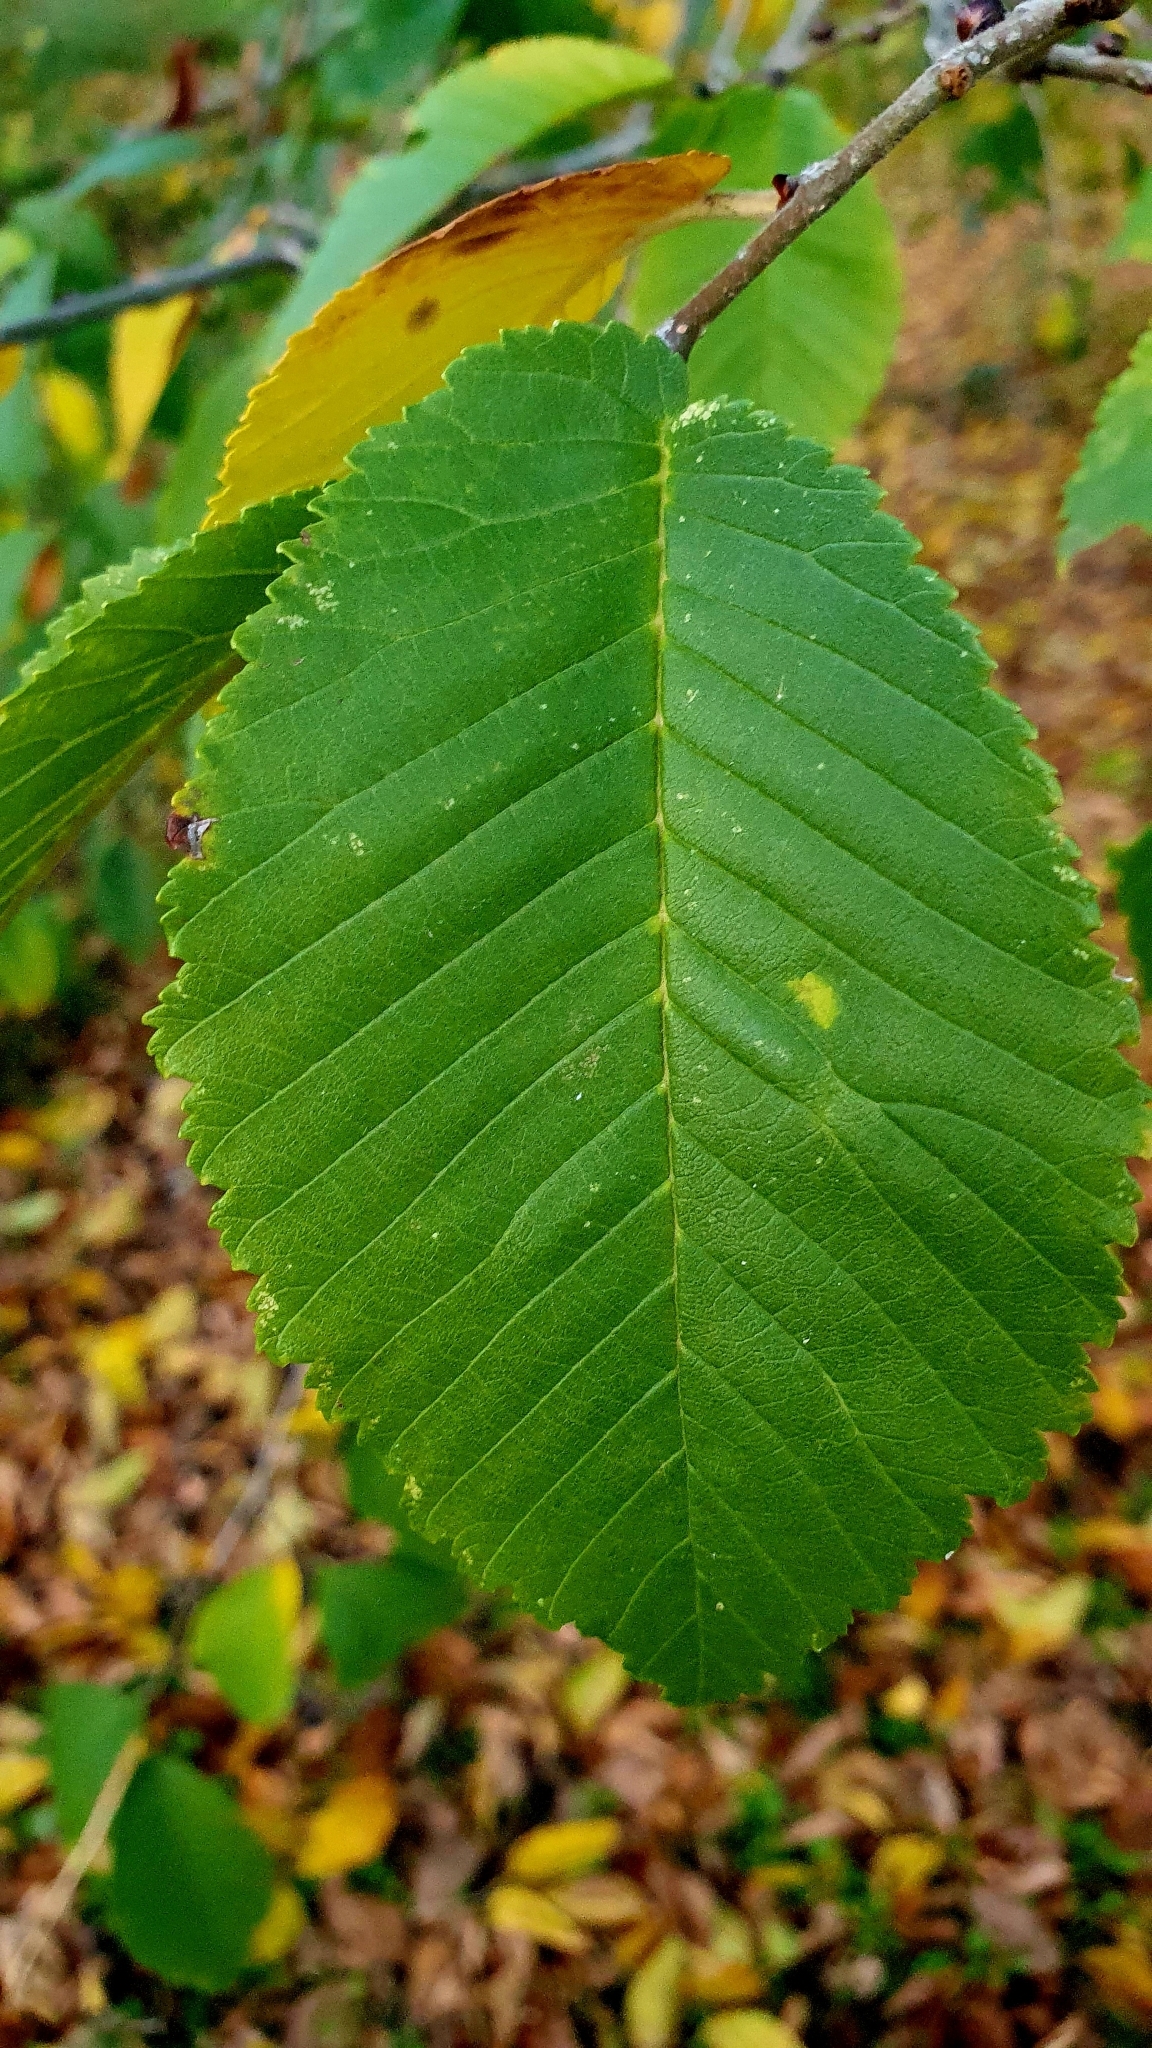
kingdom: Plantae
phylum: Tracheophyta
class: Magnoliopsida
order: Rosales
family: Ulmaceae
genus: Ulmus
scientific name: Ulmus glabra
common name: Wych elm
